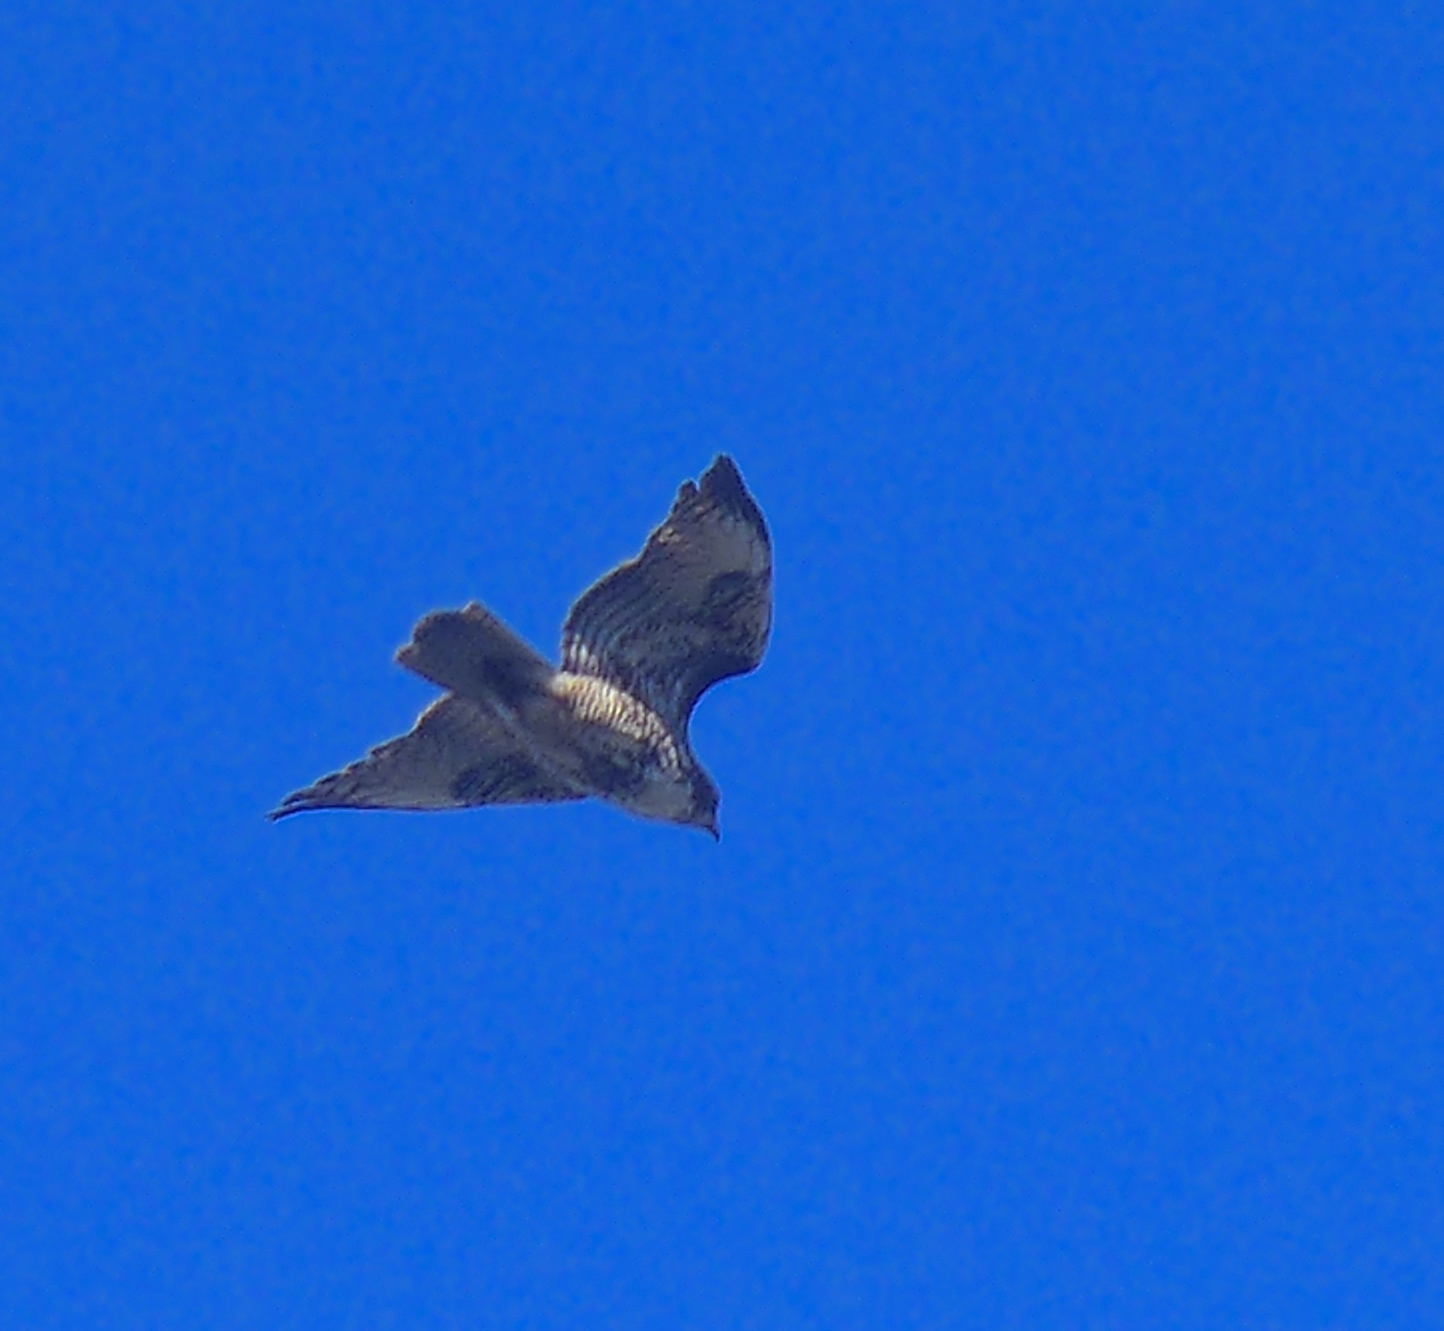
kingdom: Animalia
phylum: Chordata
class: Aves
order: Accipitriformes
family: Accipitridae
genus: Buteo
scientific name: Buteo jamaicensis
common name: Red-tailed hawk
